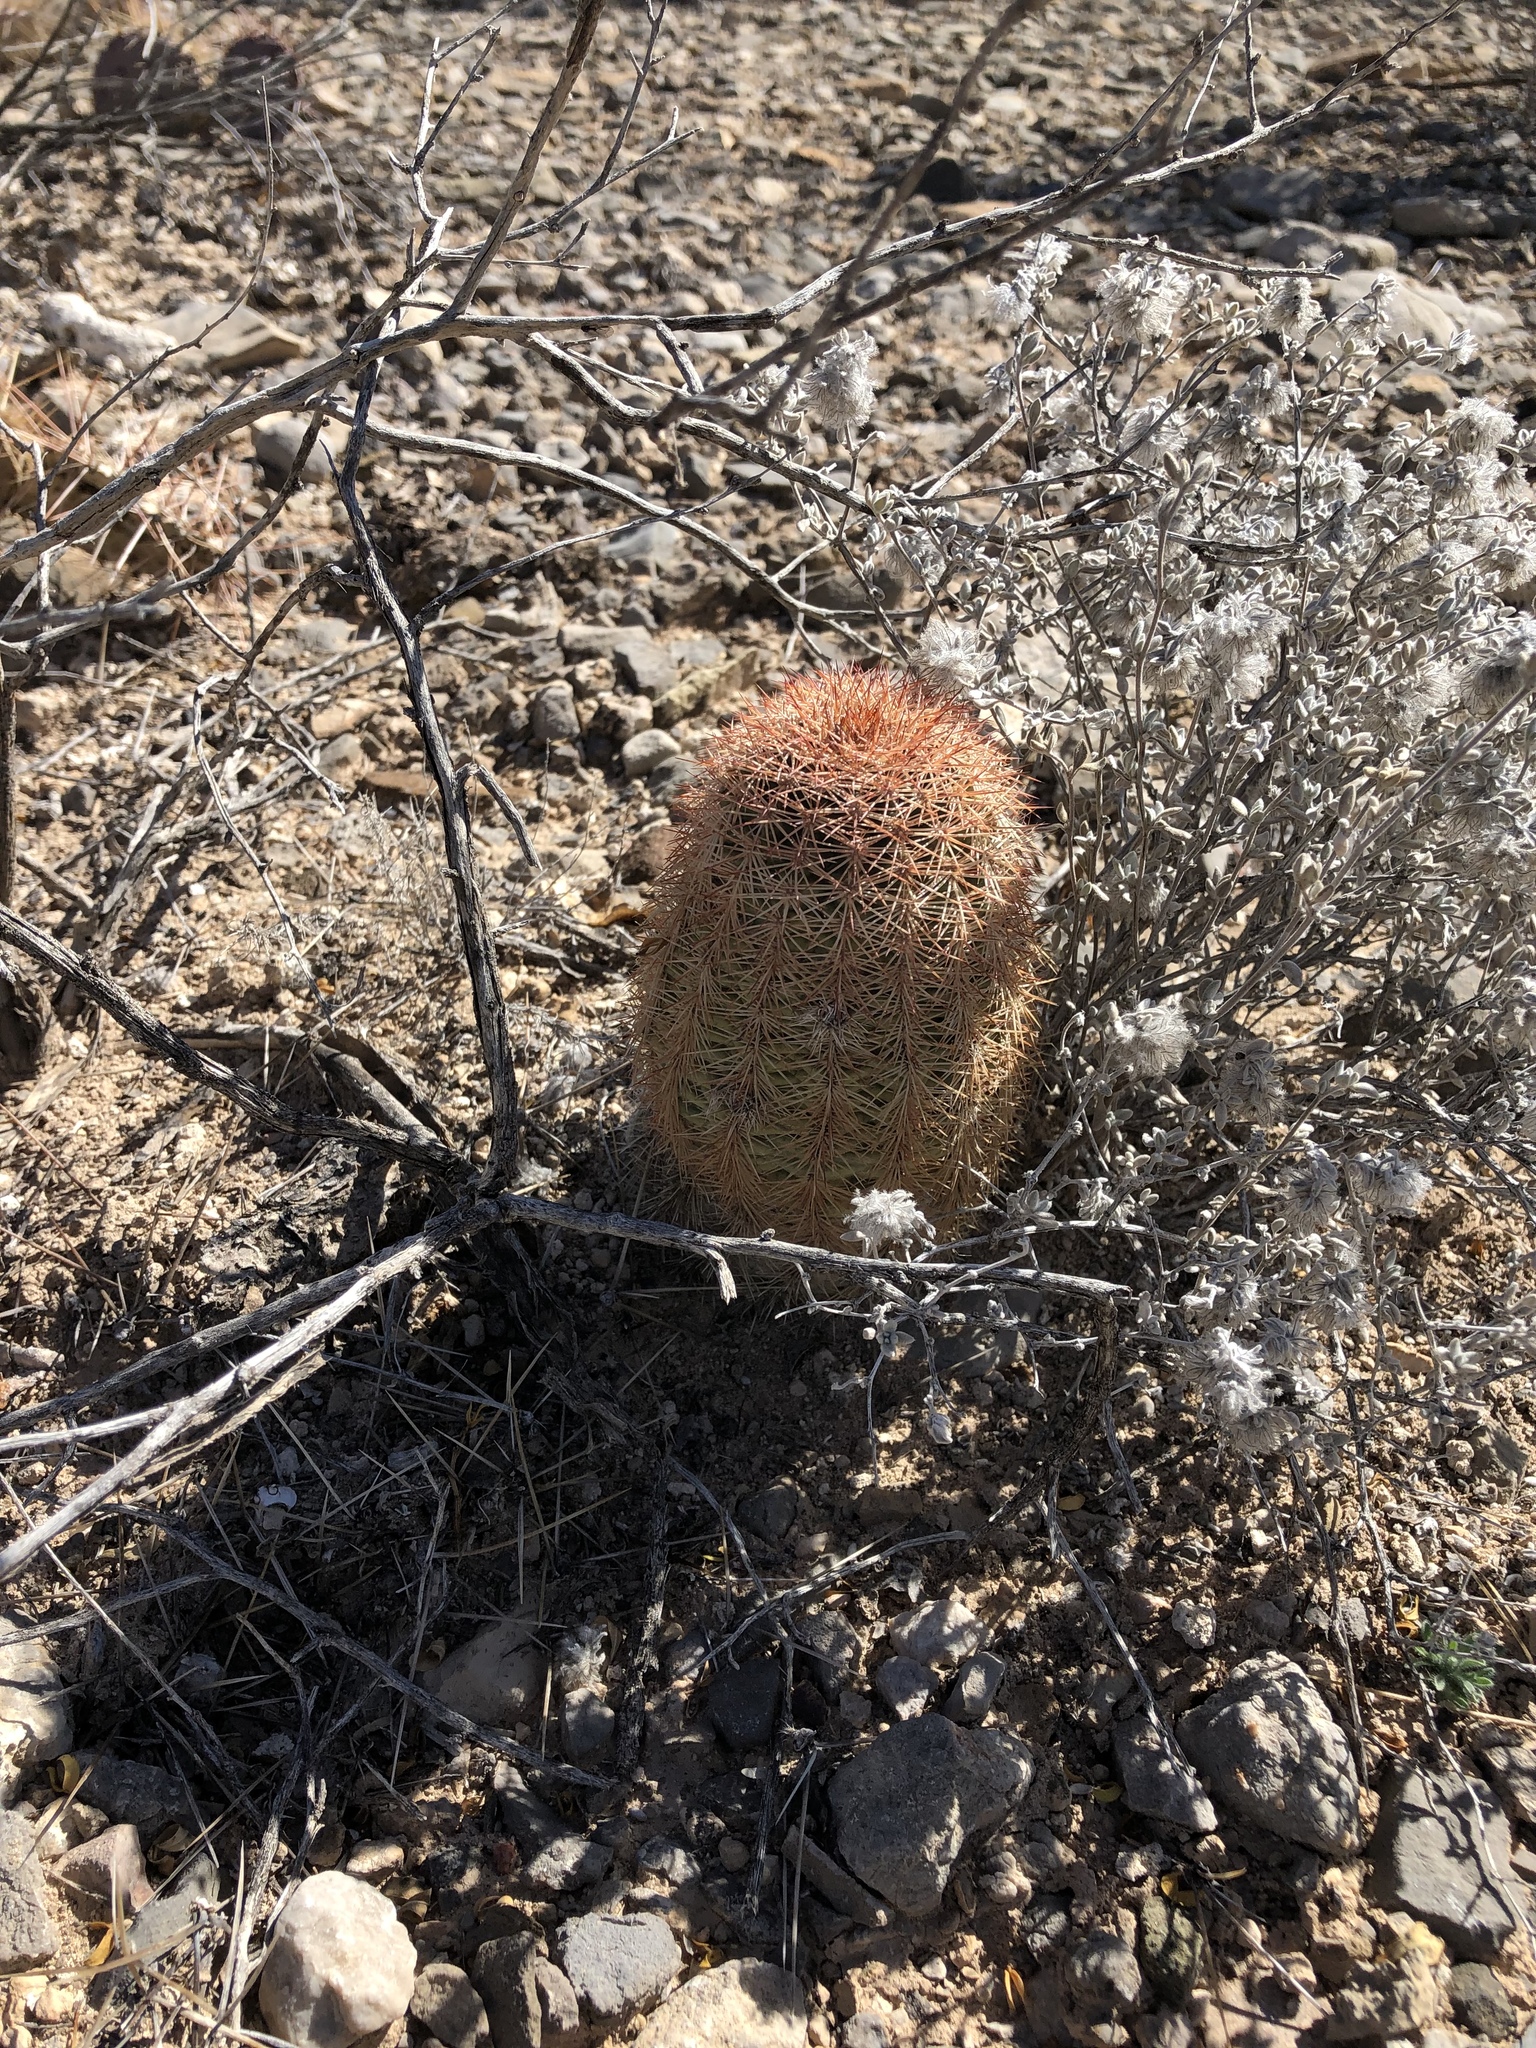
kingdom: Plantae
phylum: Tracheophyta
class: Magnoliopsida
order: Caryophyllales
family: Cactaceae
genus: Echinocereus
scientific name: Echinocereus dasyacanthus
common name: Spiny hedgehog cactus
